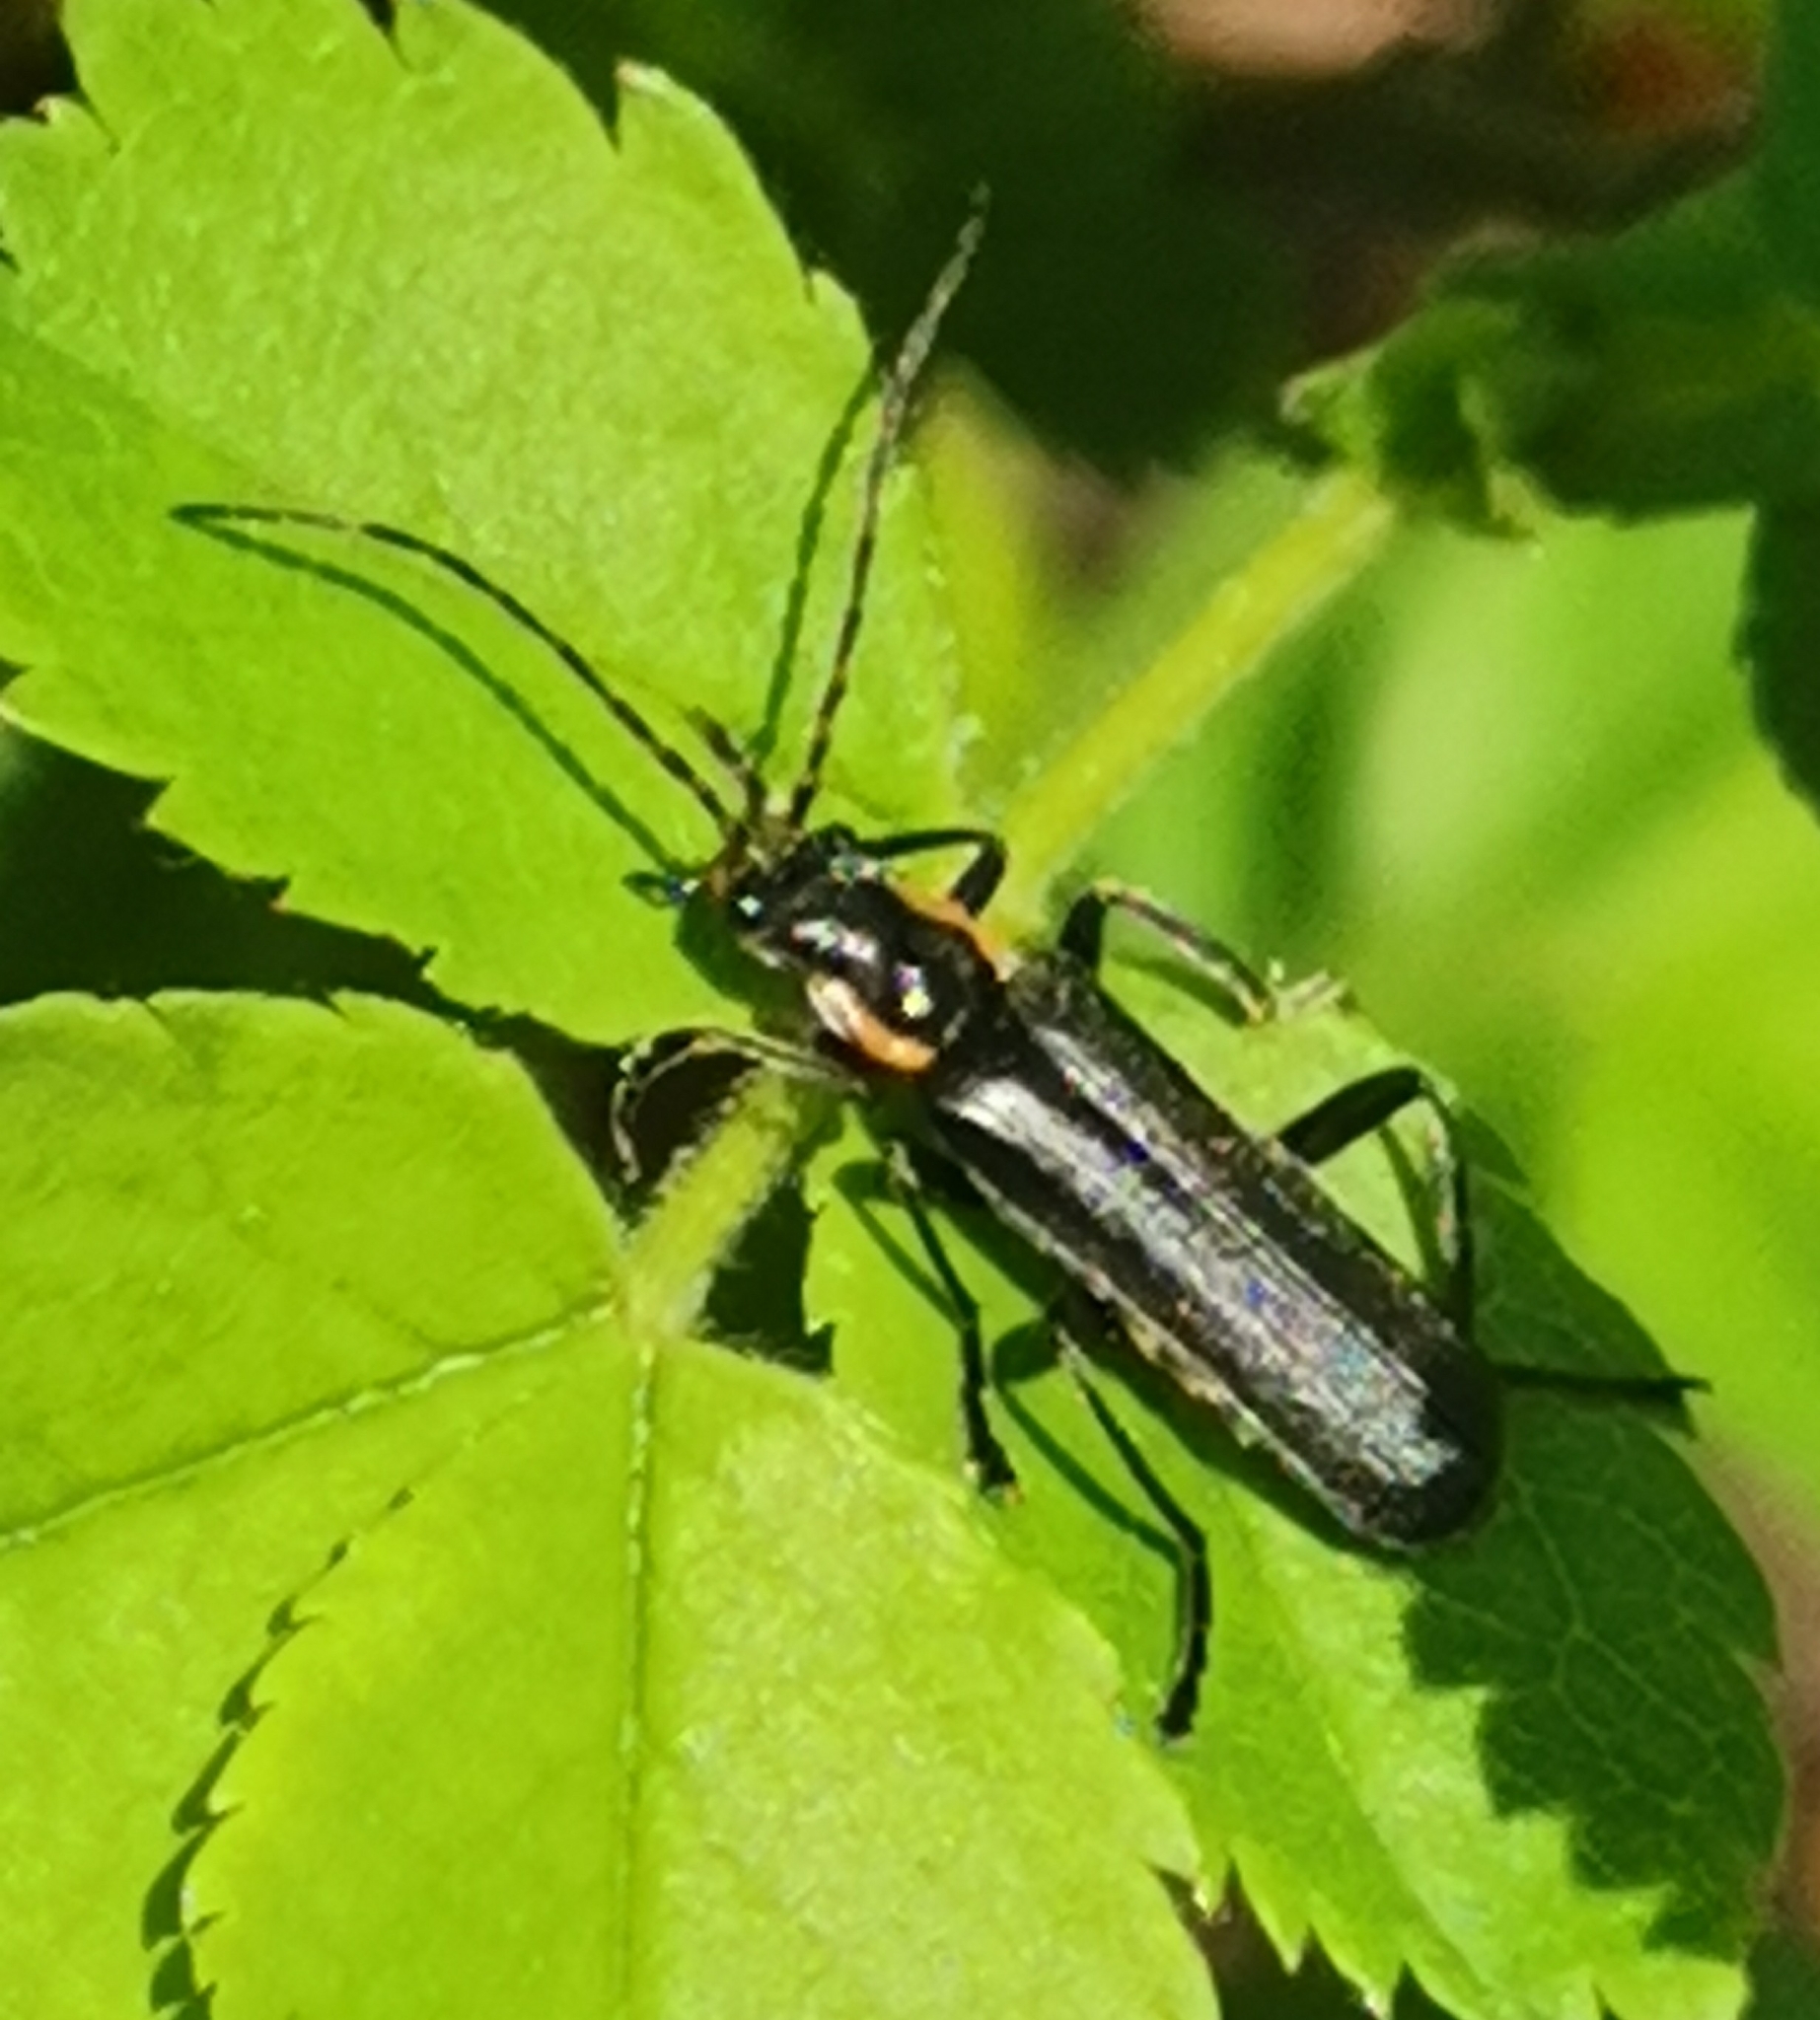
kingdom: Animalia
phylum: Arthropoda
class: Insecta
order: Coleoptera
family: Cantharidae
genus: Cantharis
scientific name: Cantharis obscura
